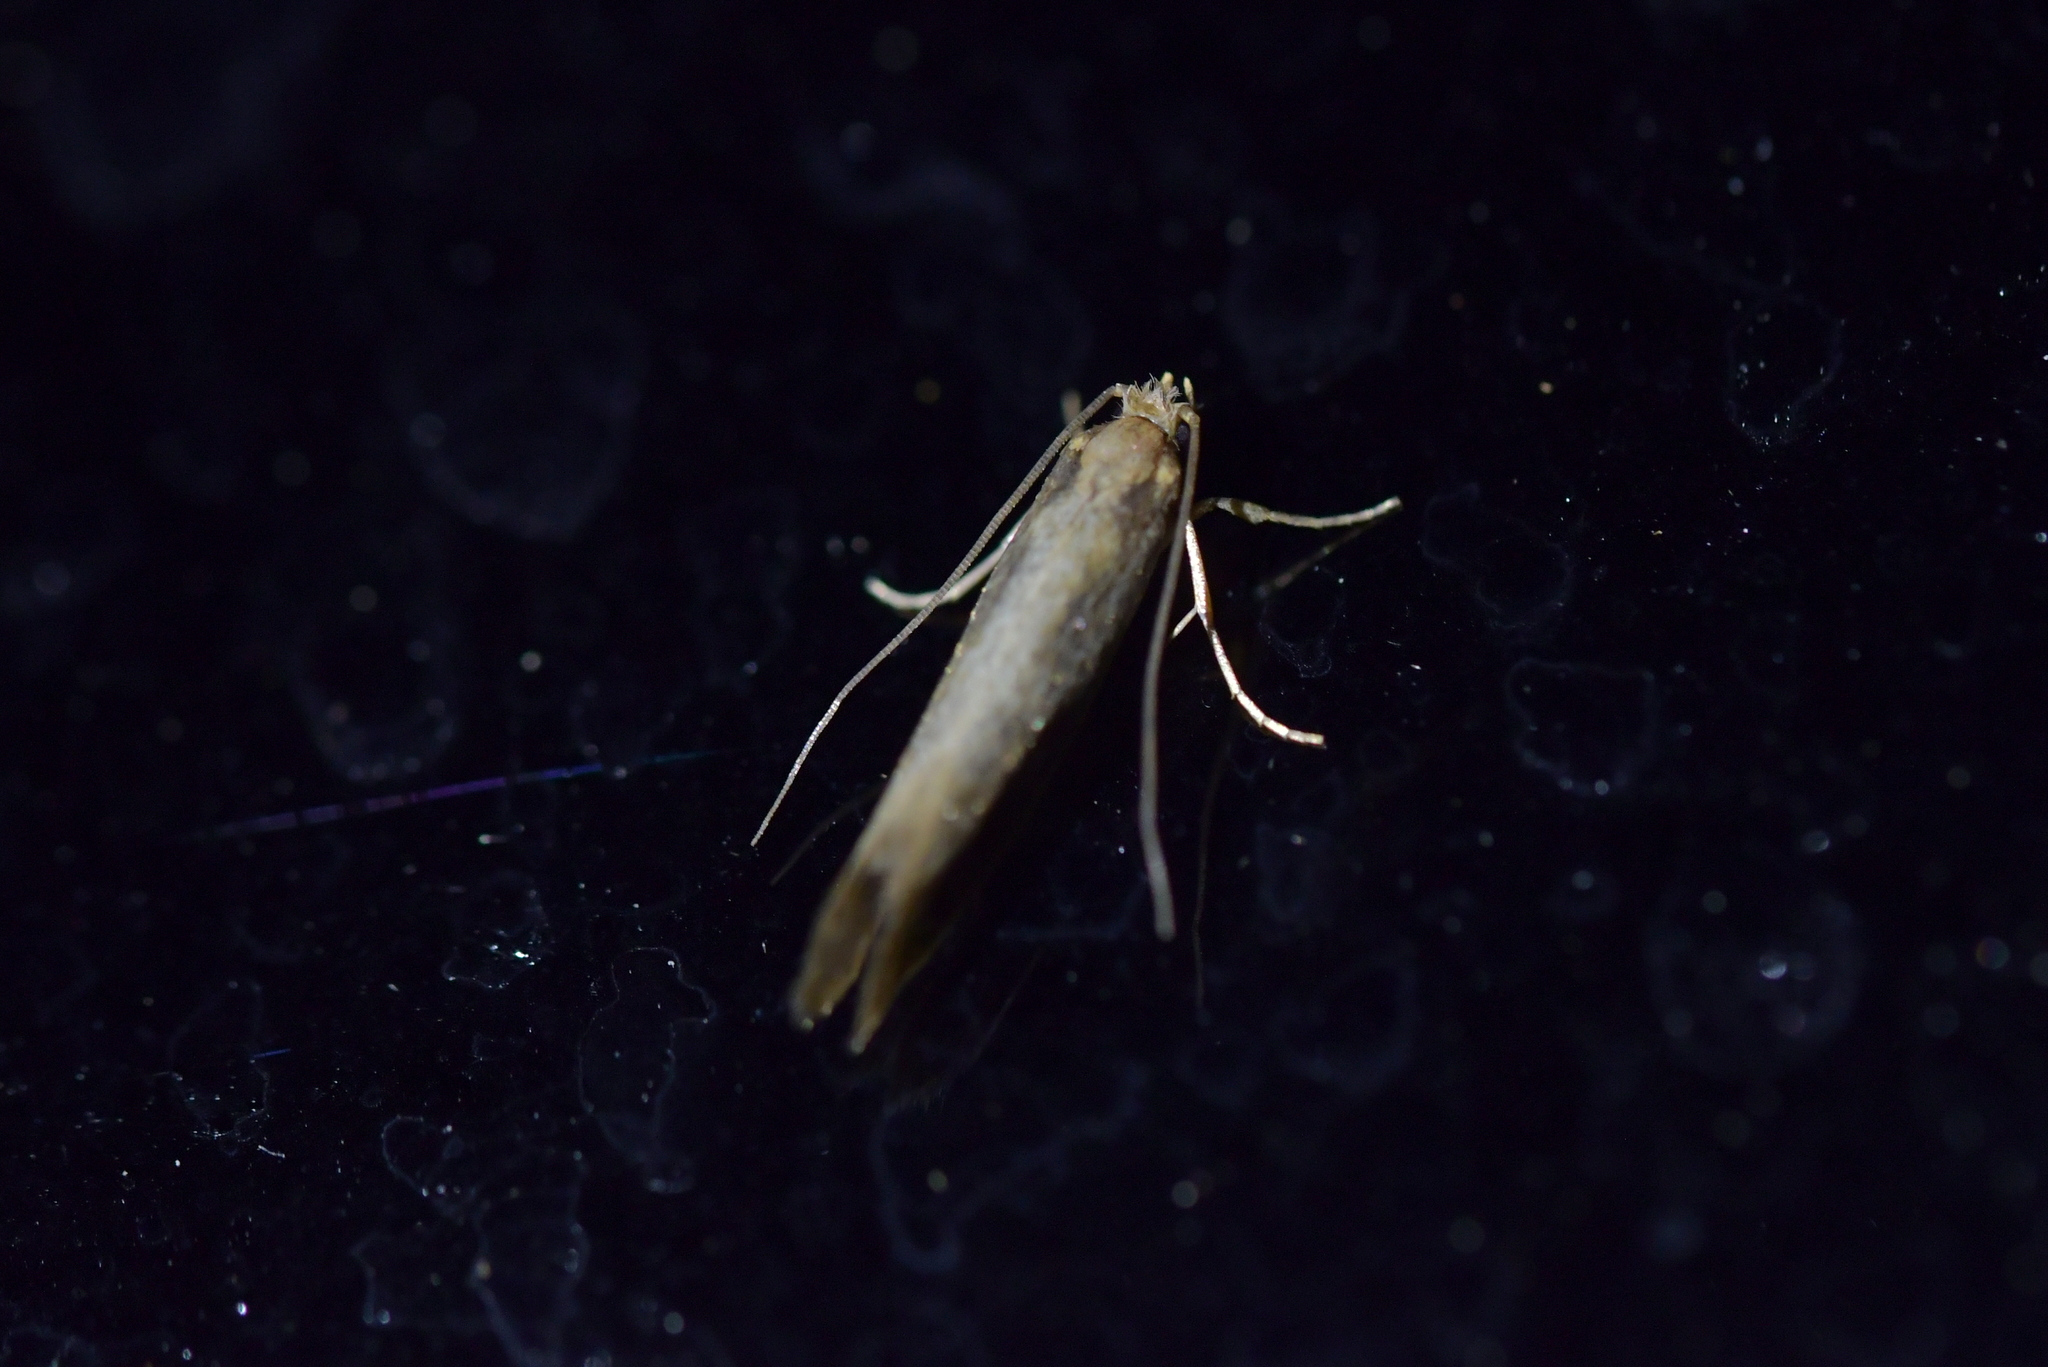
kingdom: Animalia
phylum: Arthropoda
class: Insecta
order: Lepidoptera
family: Tineidae
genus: Tinea
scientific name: Tinea pallescentella
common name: Large pale clothes moth
